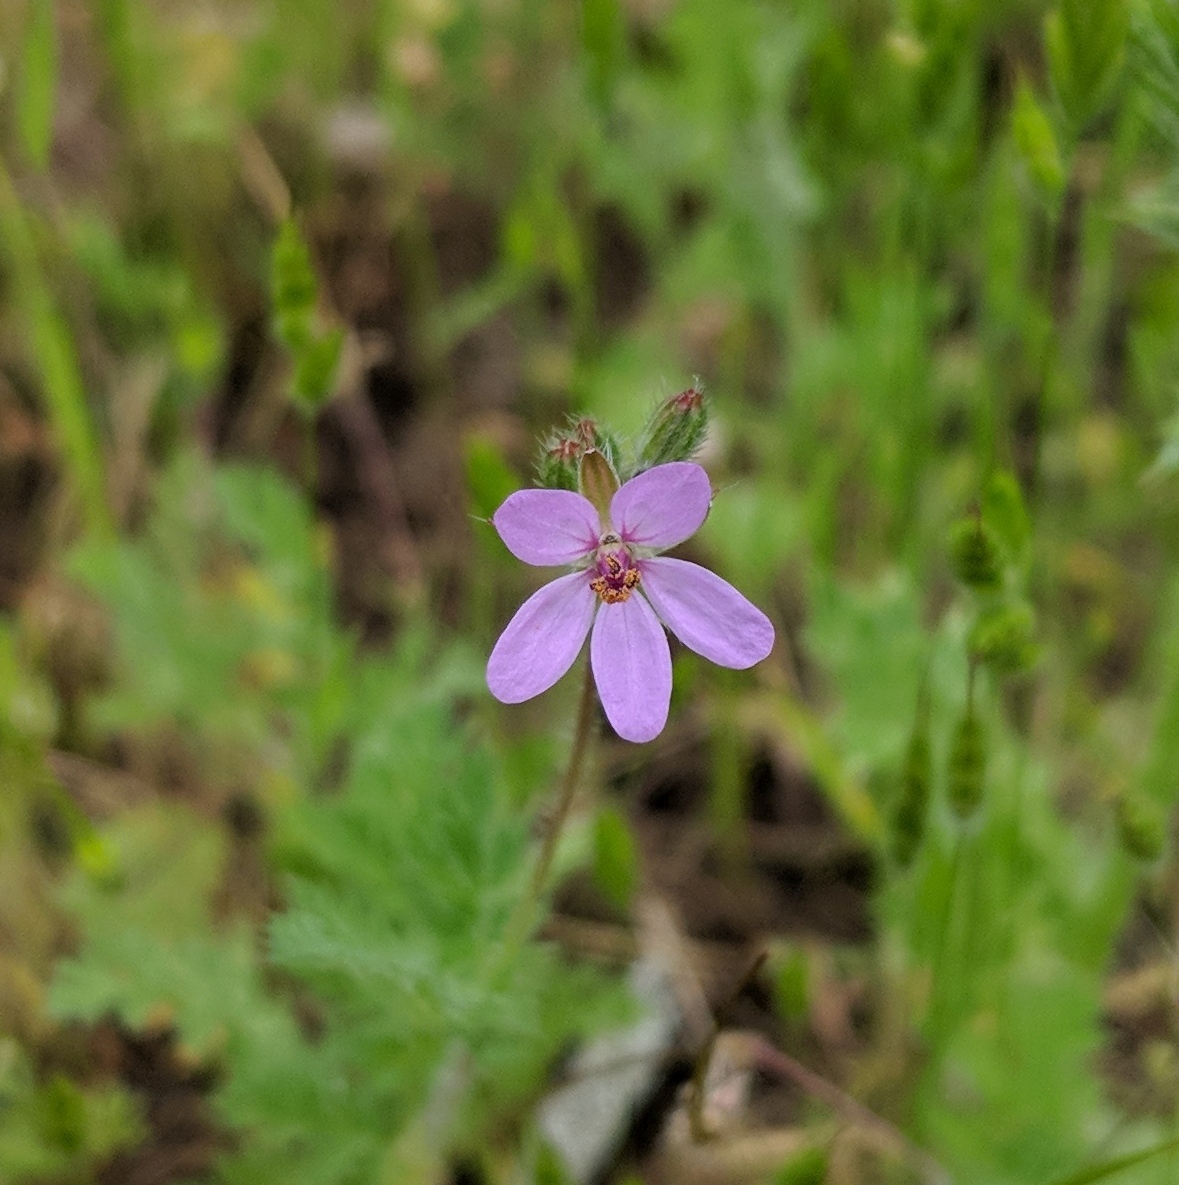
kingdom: Plantae
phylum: Tracheophyta
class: Magnoliopsida
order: Geraniales
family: Geraniaceae
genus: Erodium
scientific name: Erodium cicutarium
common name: Common stork's-bill
